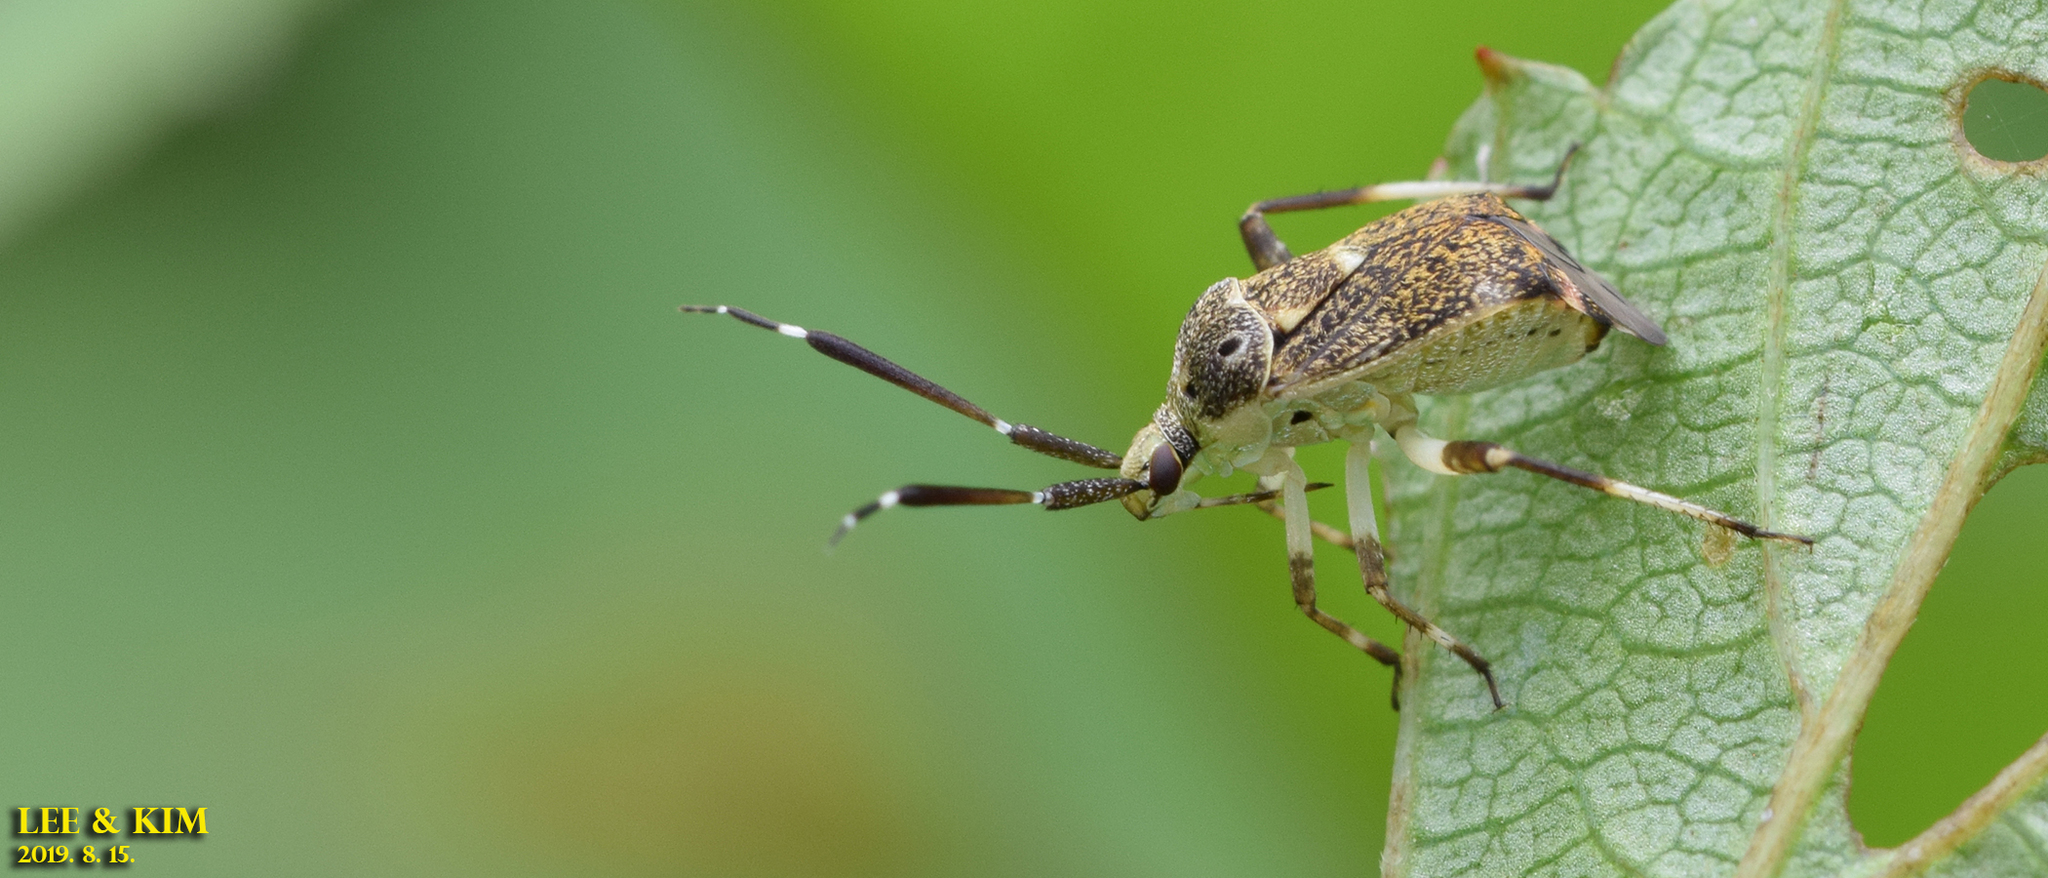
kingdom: Animalia
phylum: Arthropoda
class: Insecta
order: Hemiptera
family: Miridae
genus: Eurystylus
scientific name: Eurystylus coelestialium
